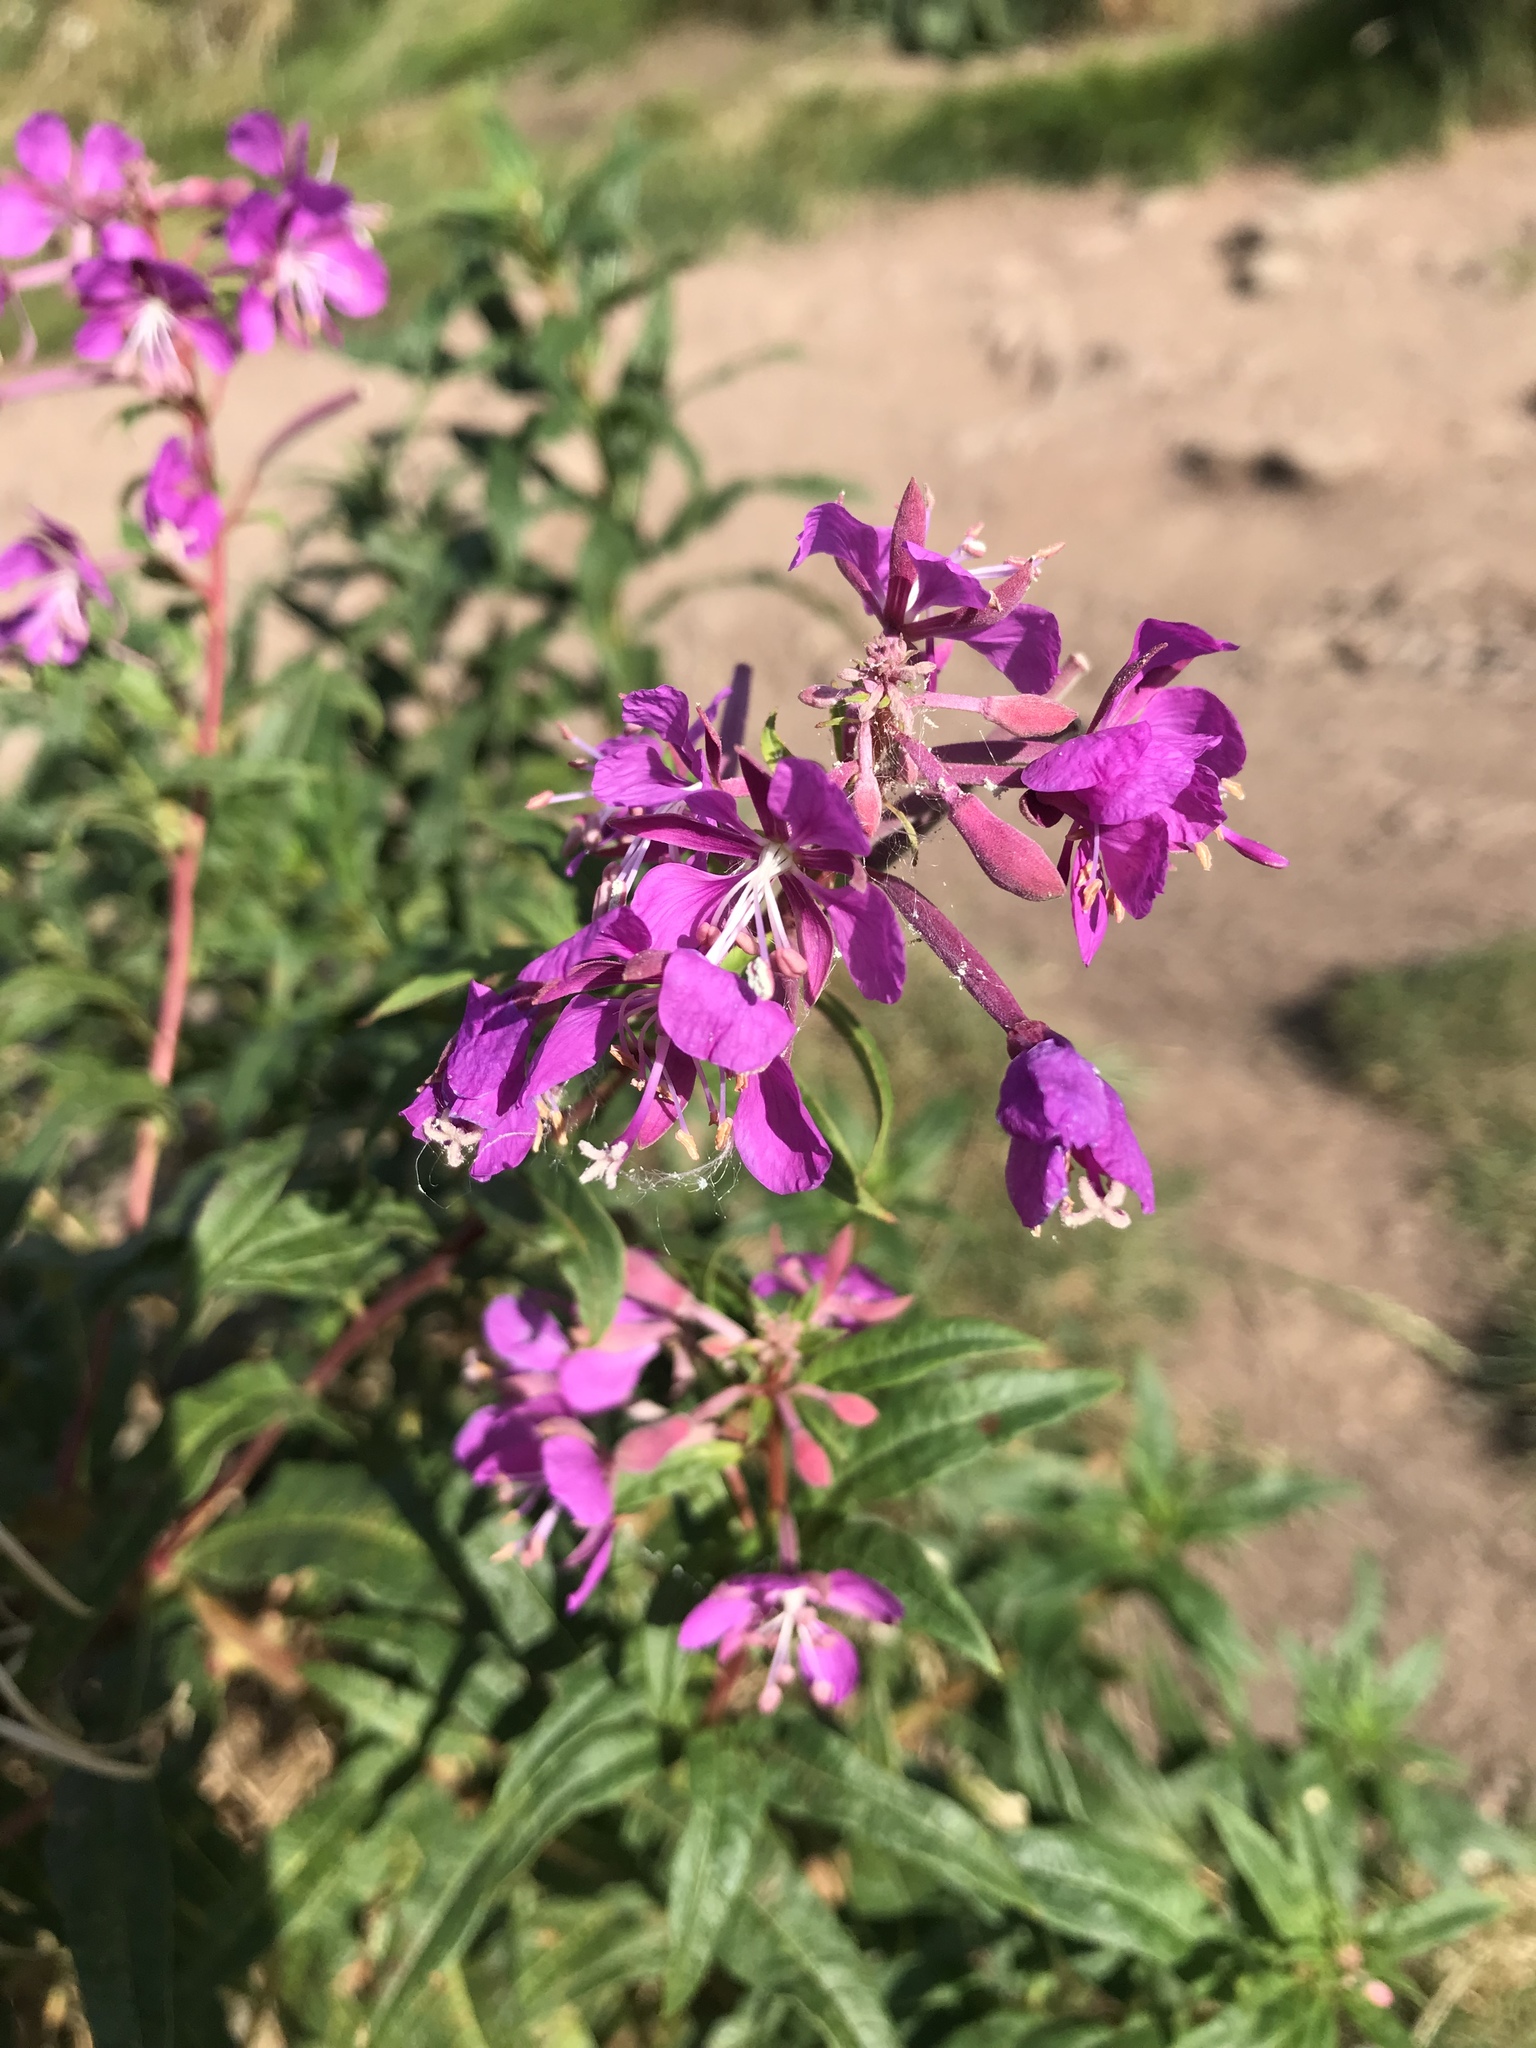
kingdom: Plantae
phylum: Tracheophyta
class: Magnoliopsida
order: Myrtales
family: Onagraceae
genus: Chamaenerion
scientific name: Chamaenerion angustifolium
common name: Fireweed
